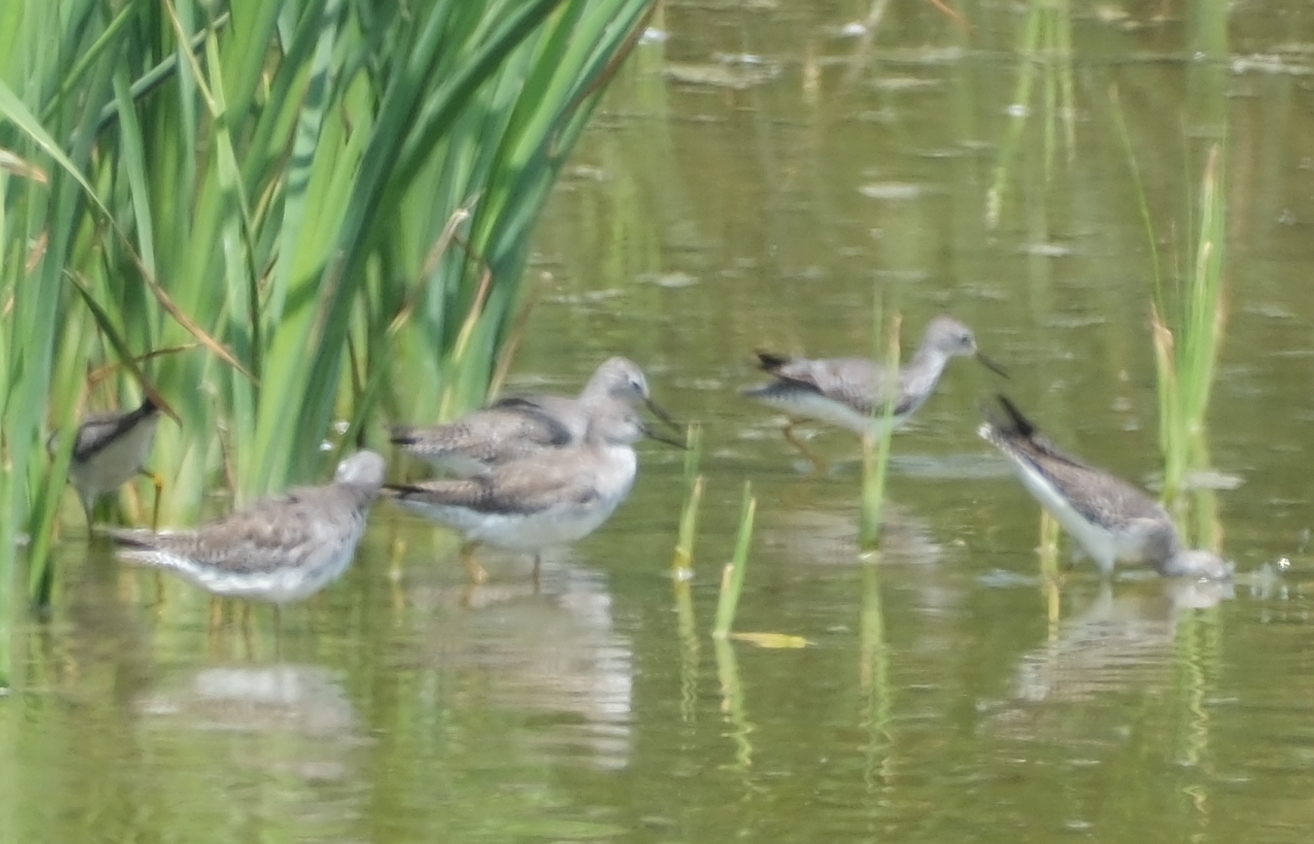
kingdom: Animalia
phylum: Chordata
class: Aves
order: Charadriiformes
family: Scolopacidae
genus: Tringa
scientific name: Tringa flavipes
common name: Lesser yellowlegs
